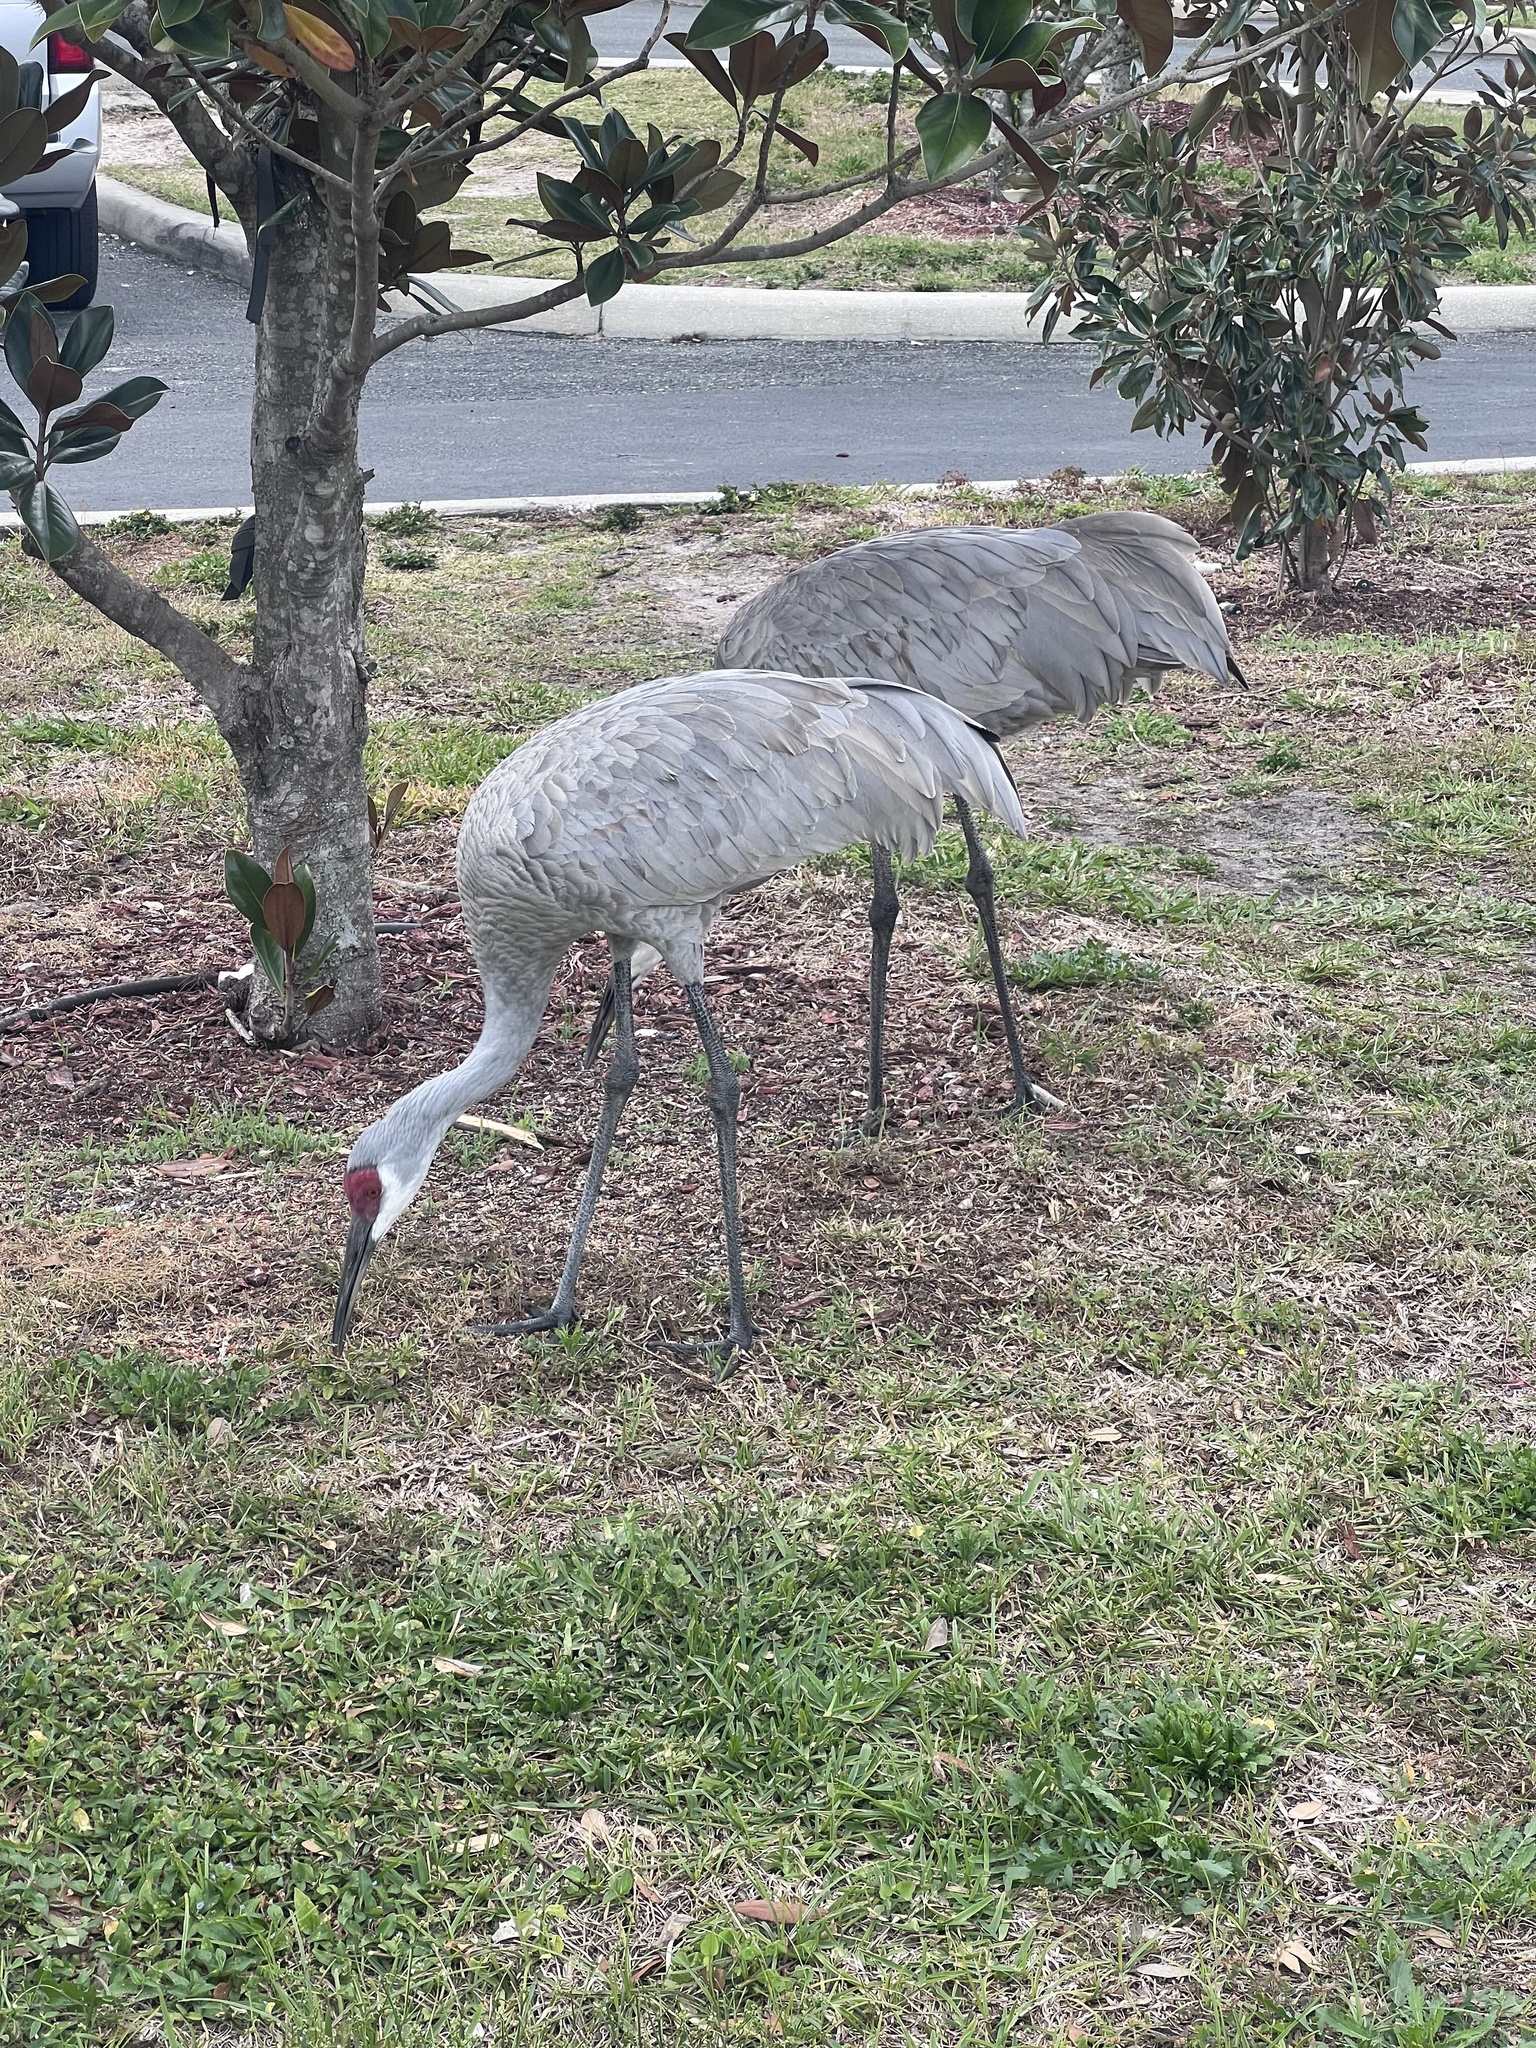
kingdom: Animalia
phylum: Chordata
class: Aves
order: Gruiformes
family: Gruidae
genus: Grus
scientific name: Grus canadensis
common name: Sandhill crane
